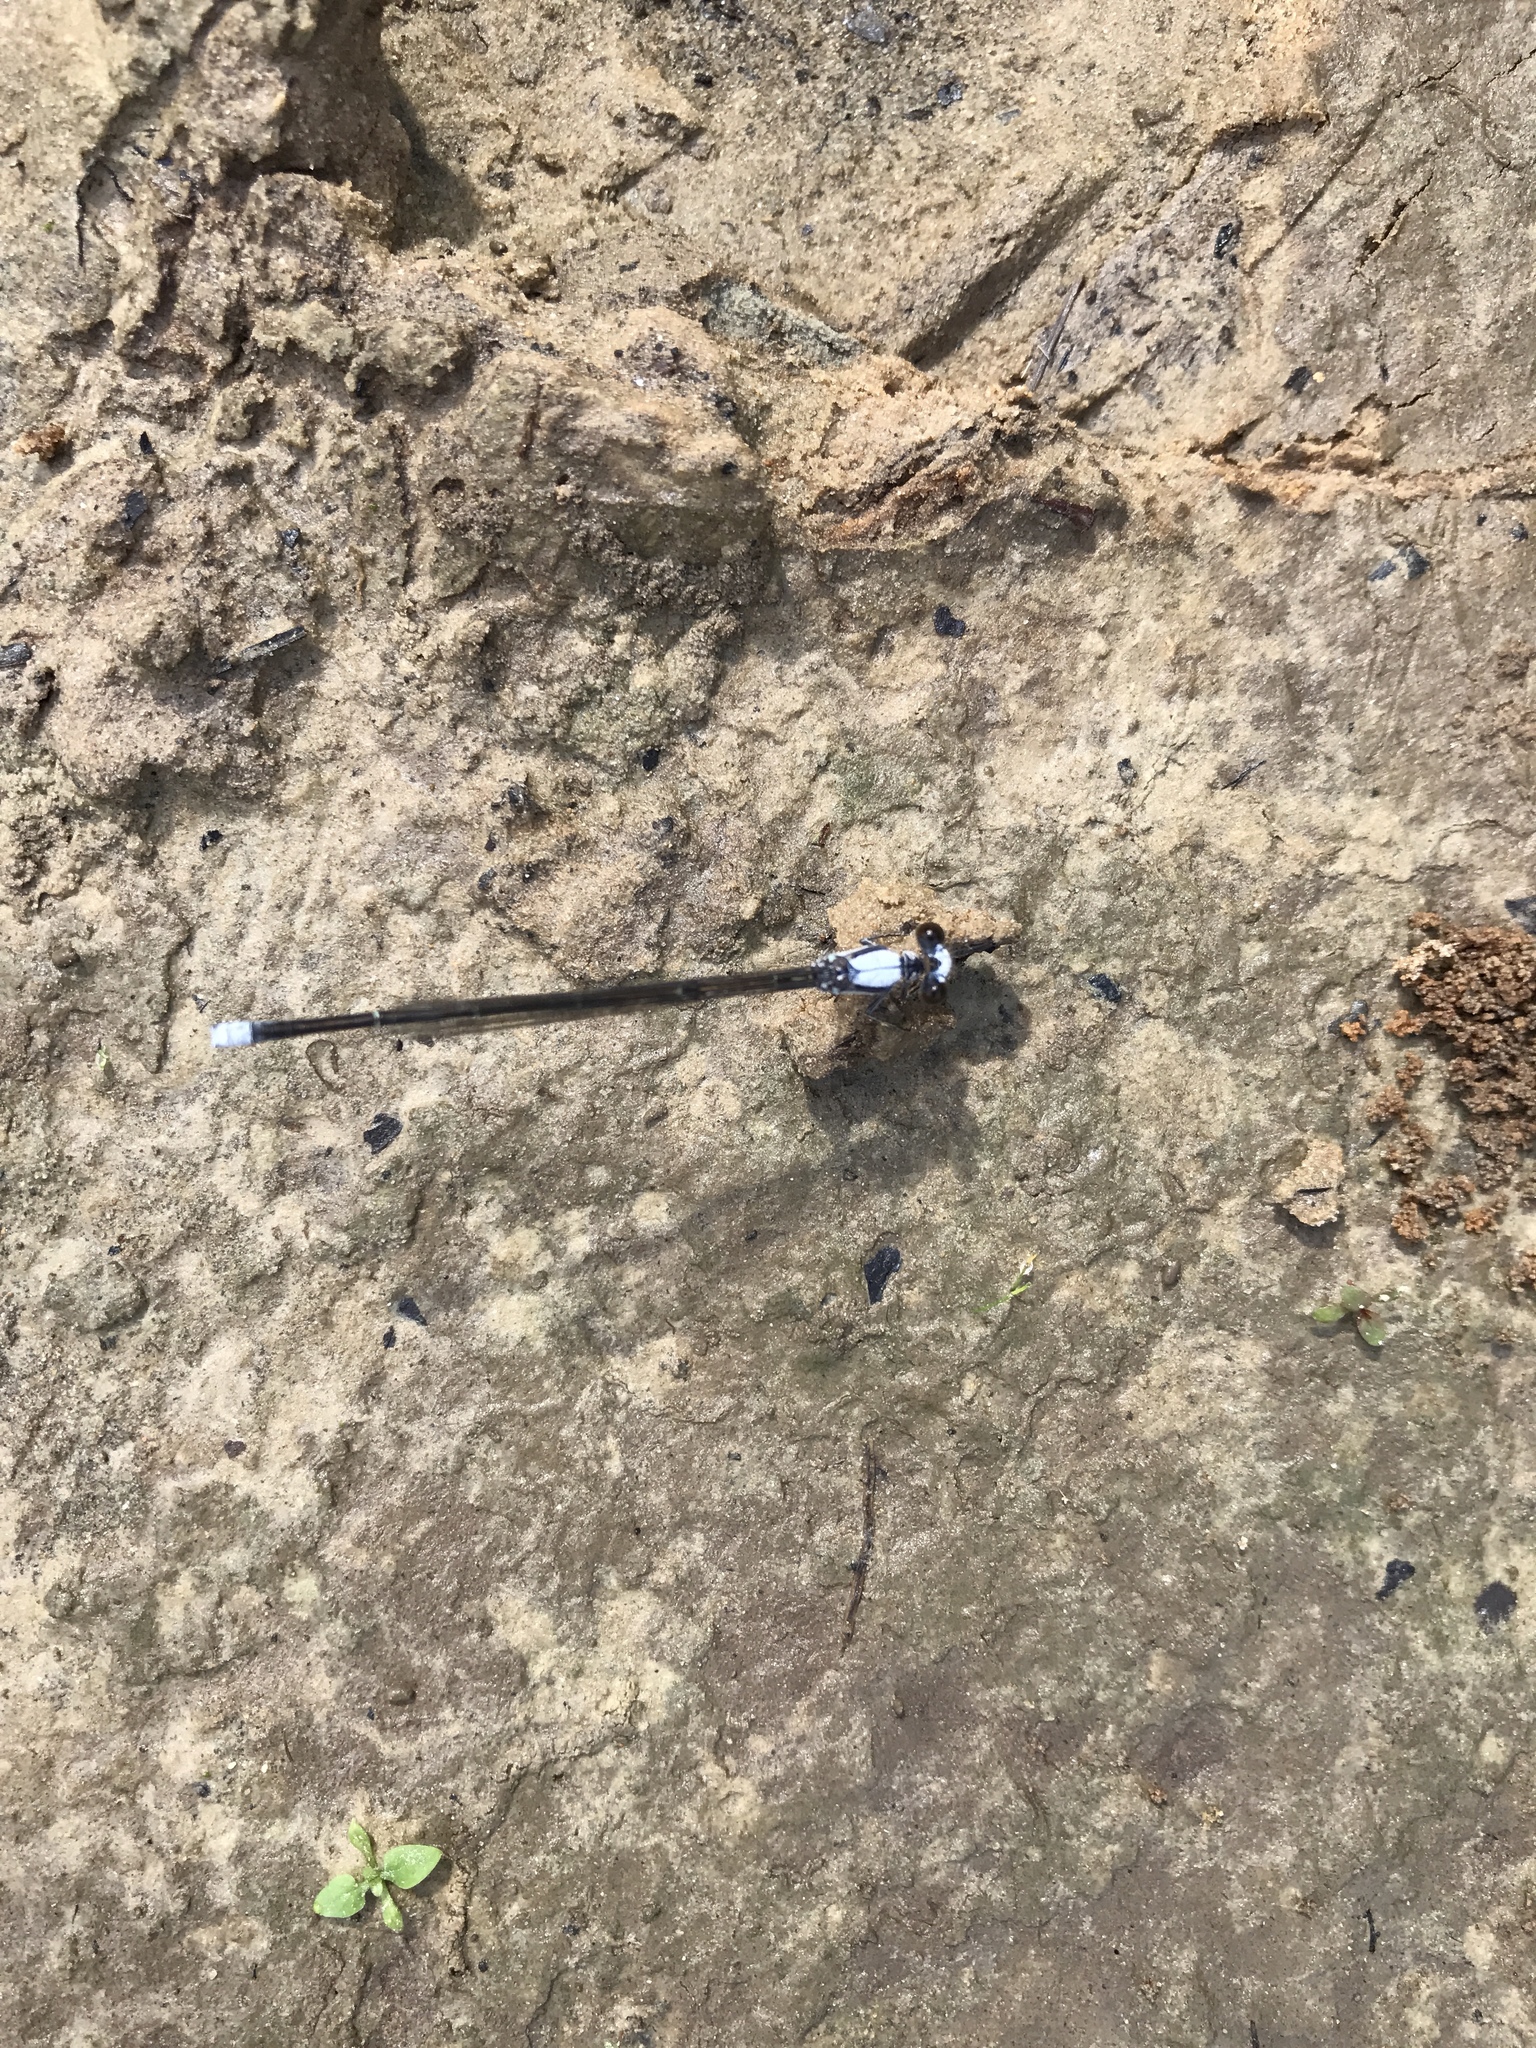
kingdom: Animalia
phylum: Arthropoda
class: Insecta
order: Odonata
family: Coenagrionidae
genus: Argia
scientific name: Argia moesta
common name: Powdered dancer
